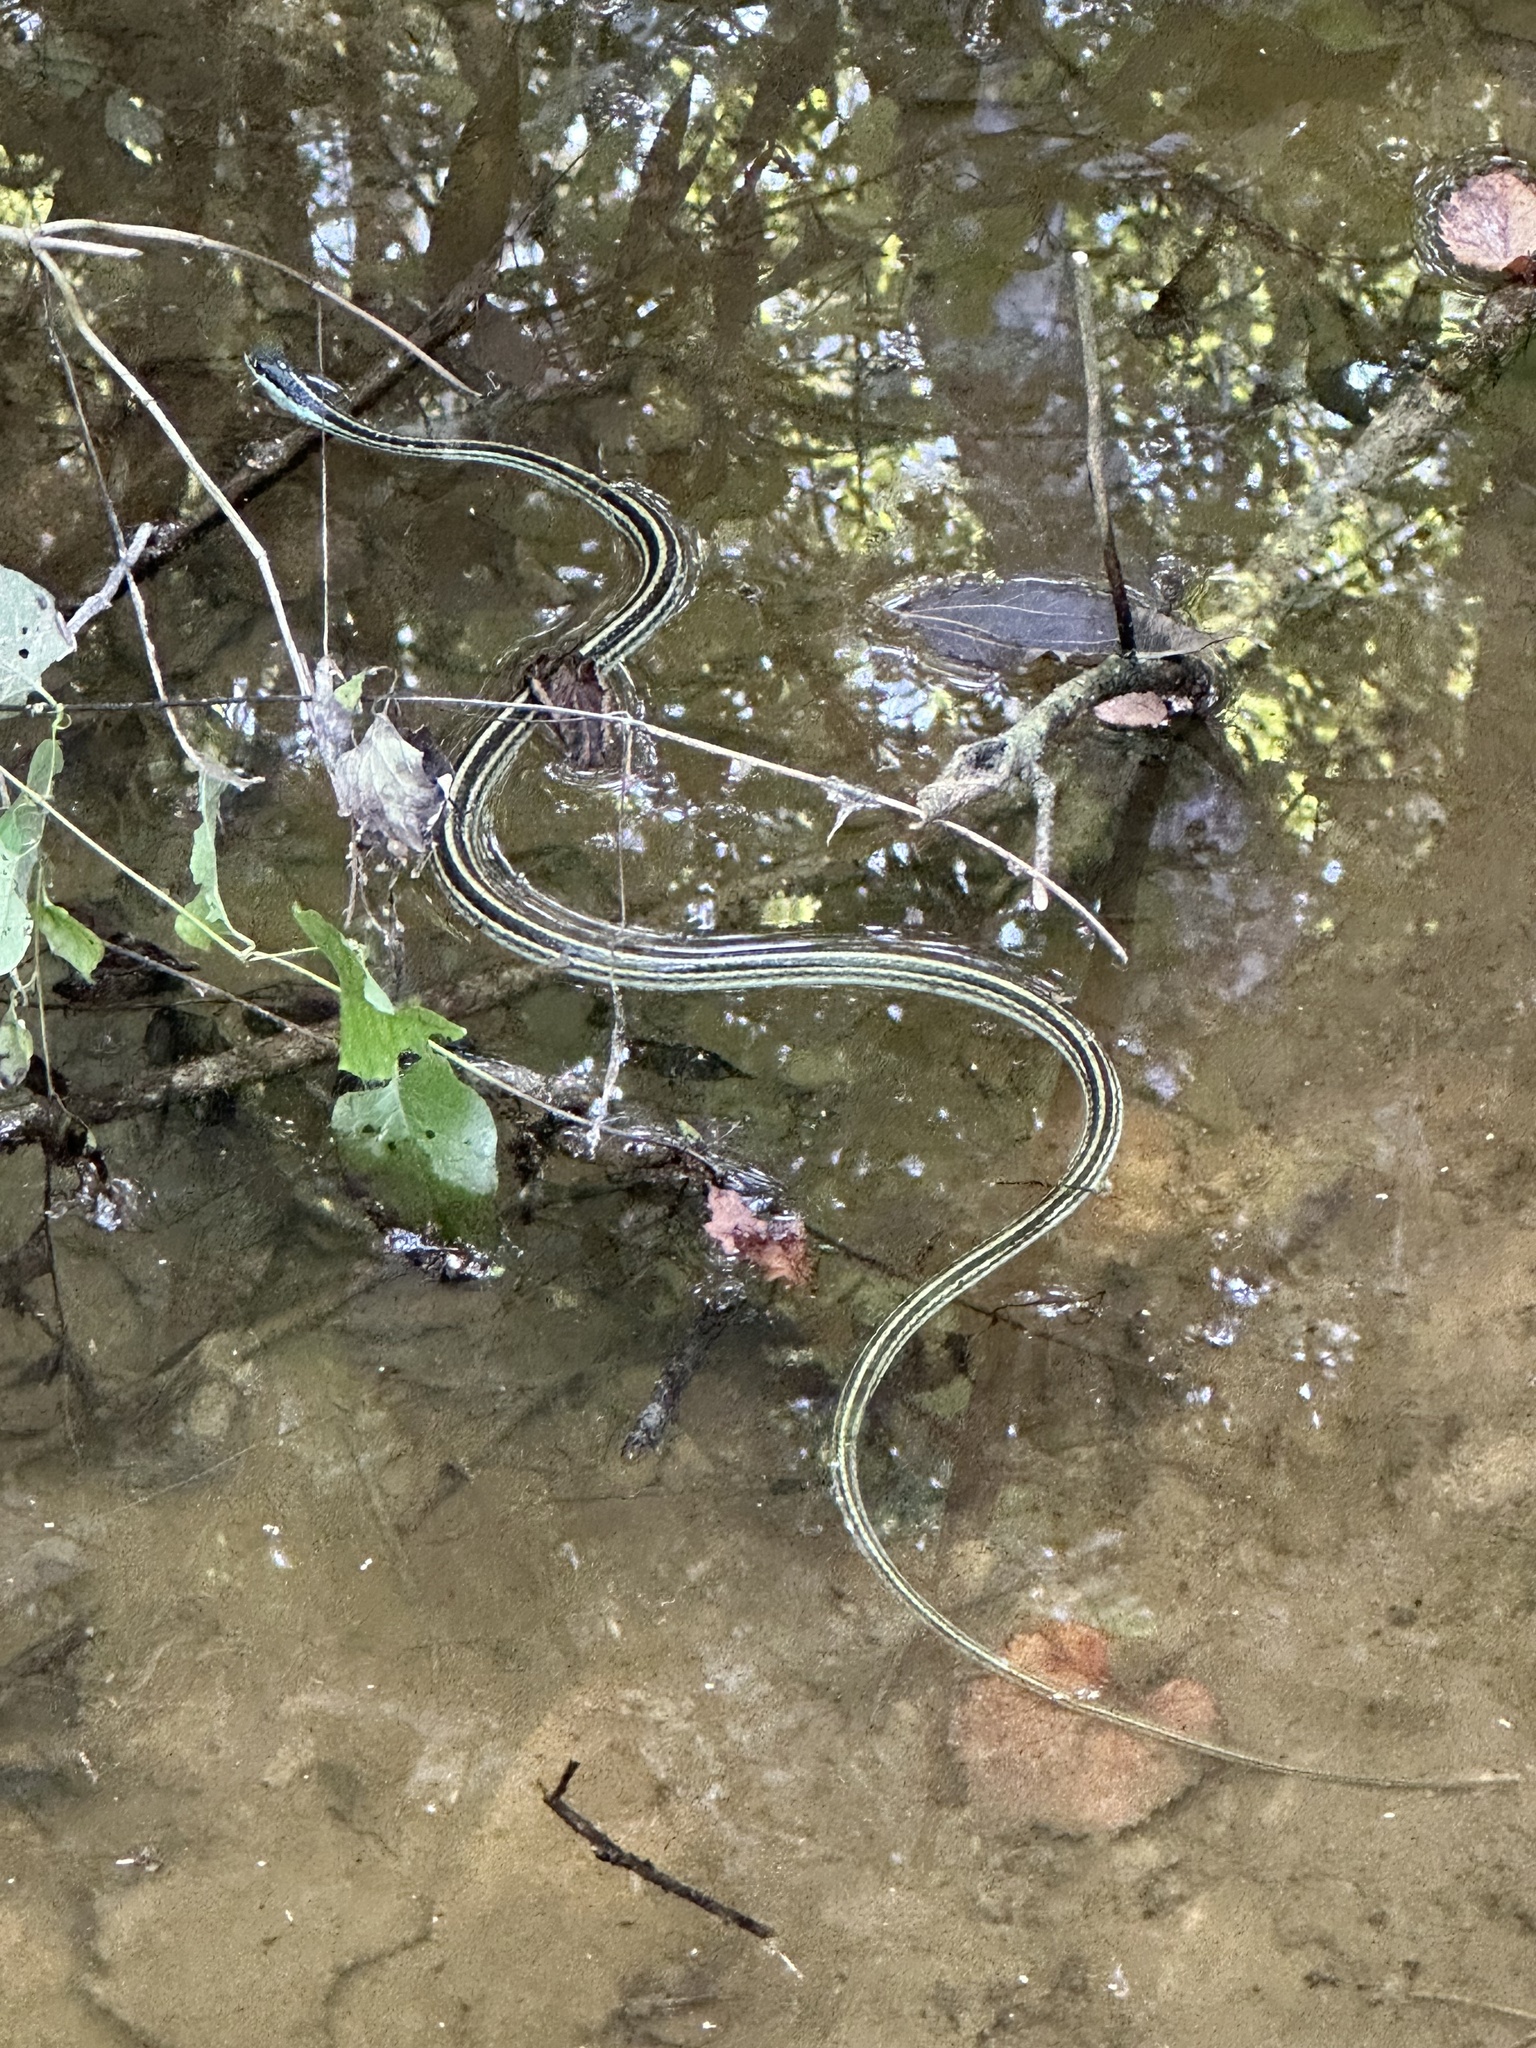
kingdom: Animalia
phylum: Chordata
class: Squamata
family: Colubridae
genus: Thamnophis
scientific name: Thamnophis proximus
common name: Western ribbon snake
